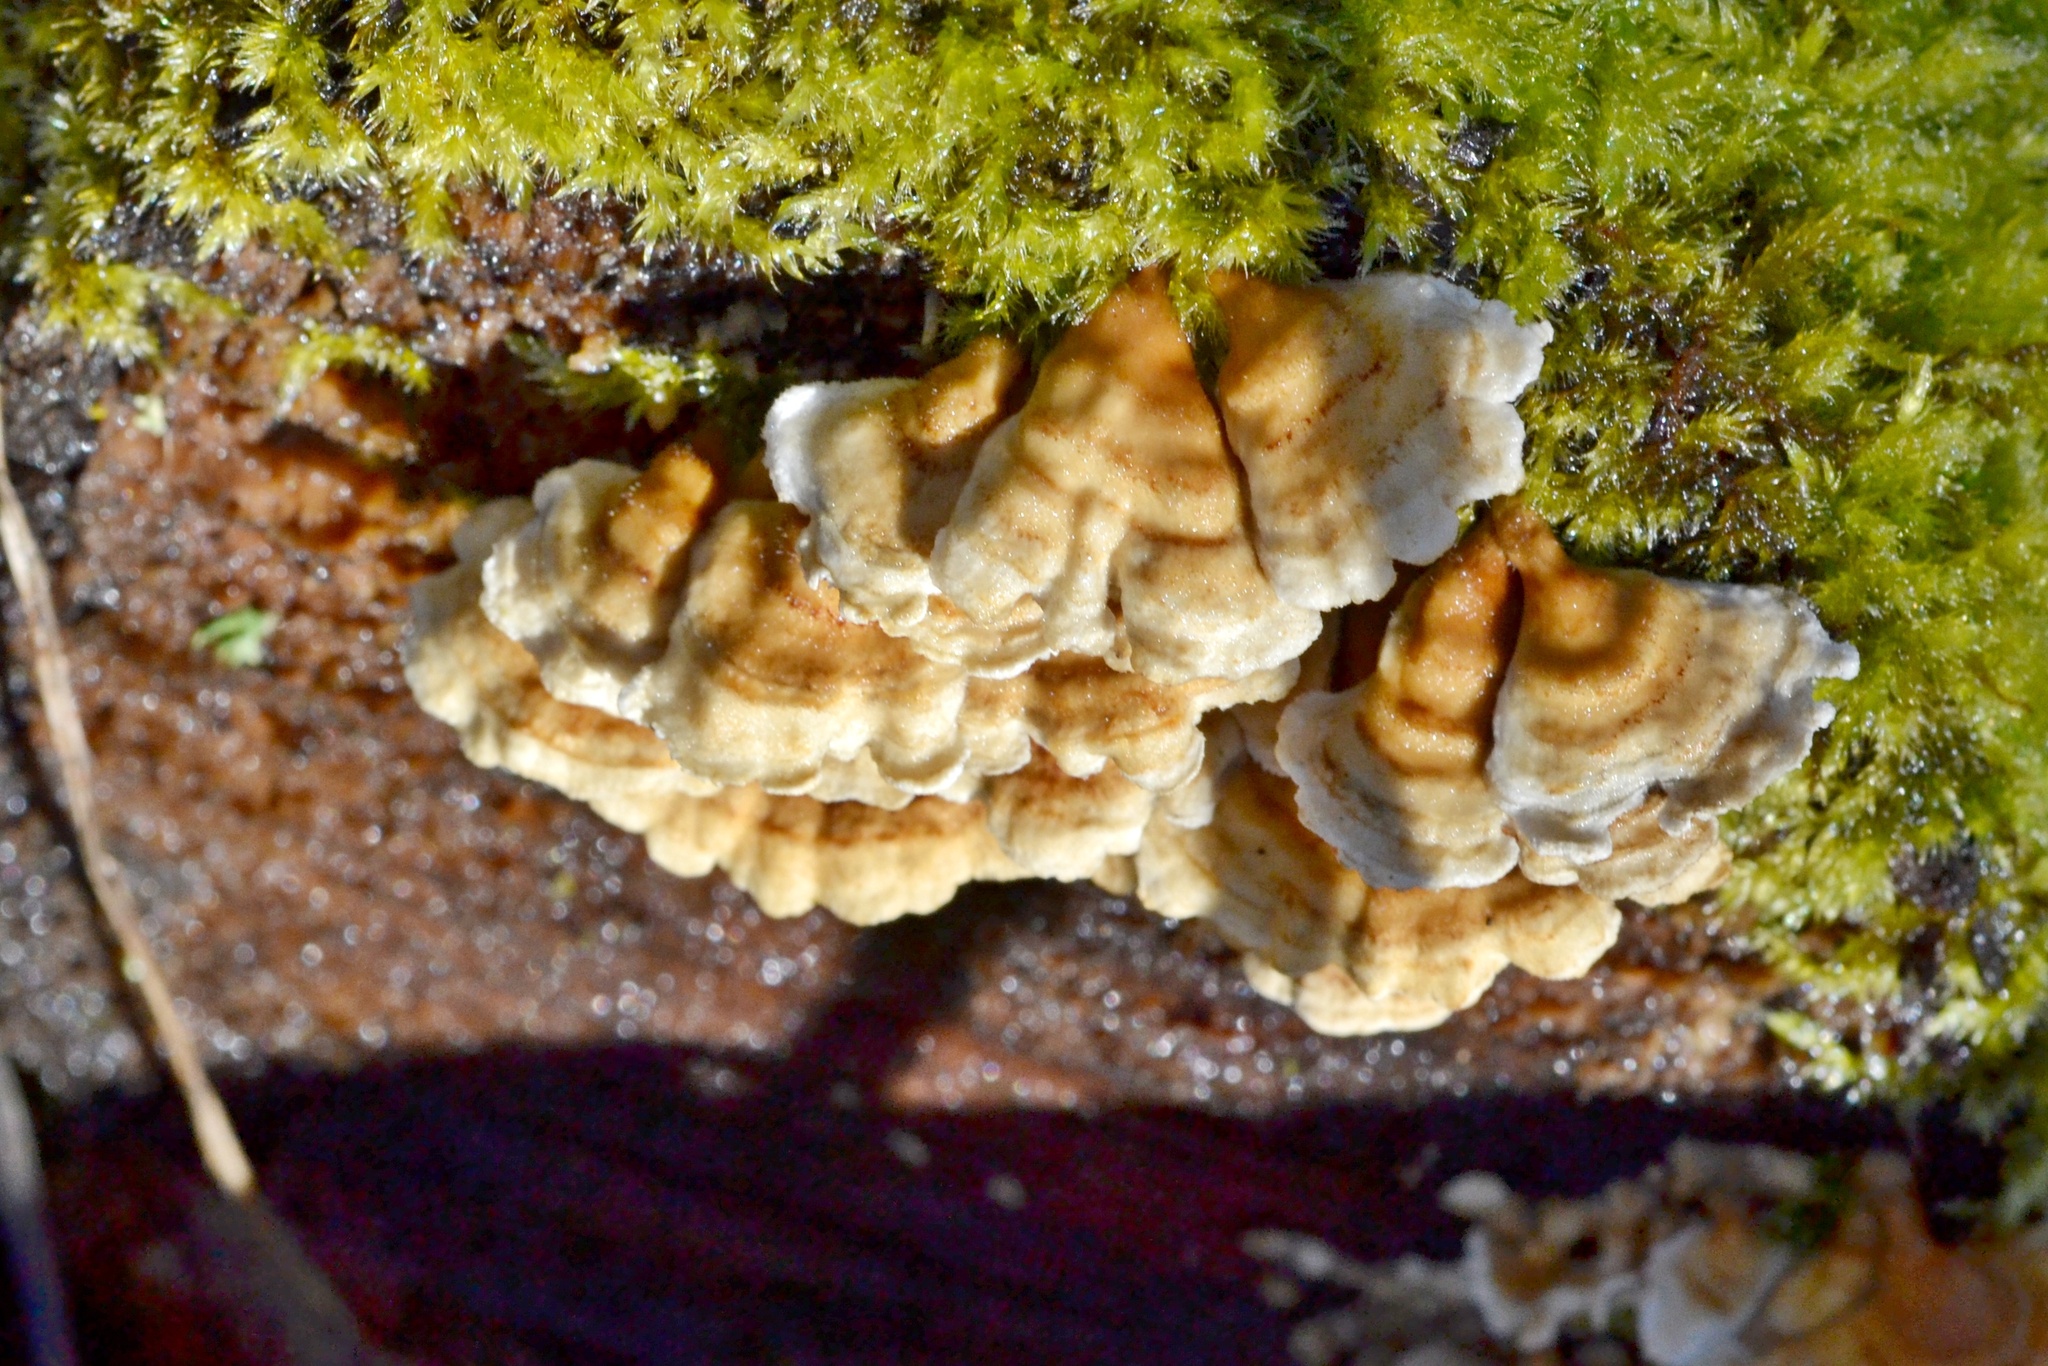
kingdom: Fungi
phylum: Basidiomycota
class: Agaricomycetes
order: Amylocorticiales
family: Amylocorticiaceae
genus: Plicaturopsis
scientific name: Plicaturopsis crispa
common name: Crimped gill
